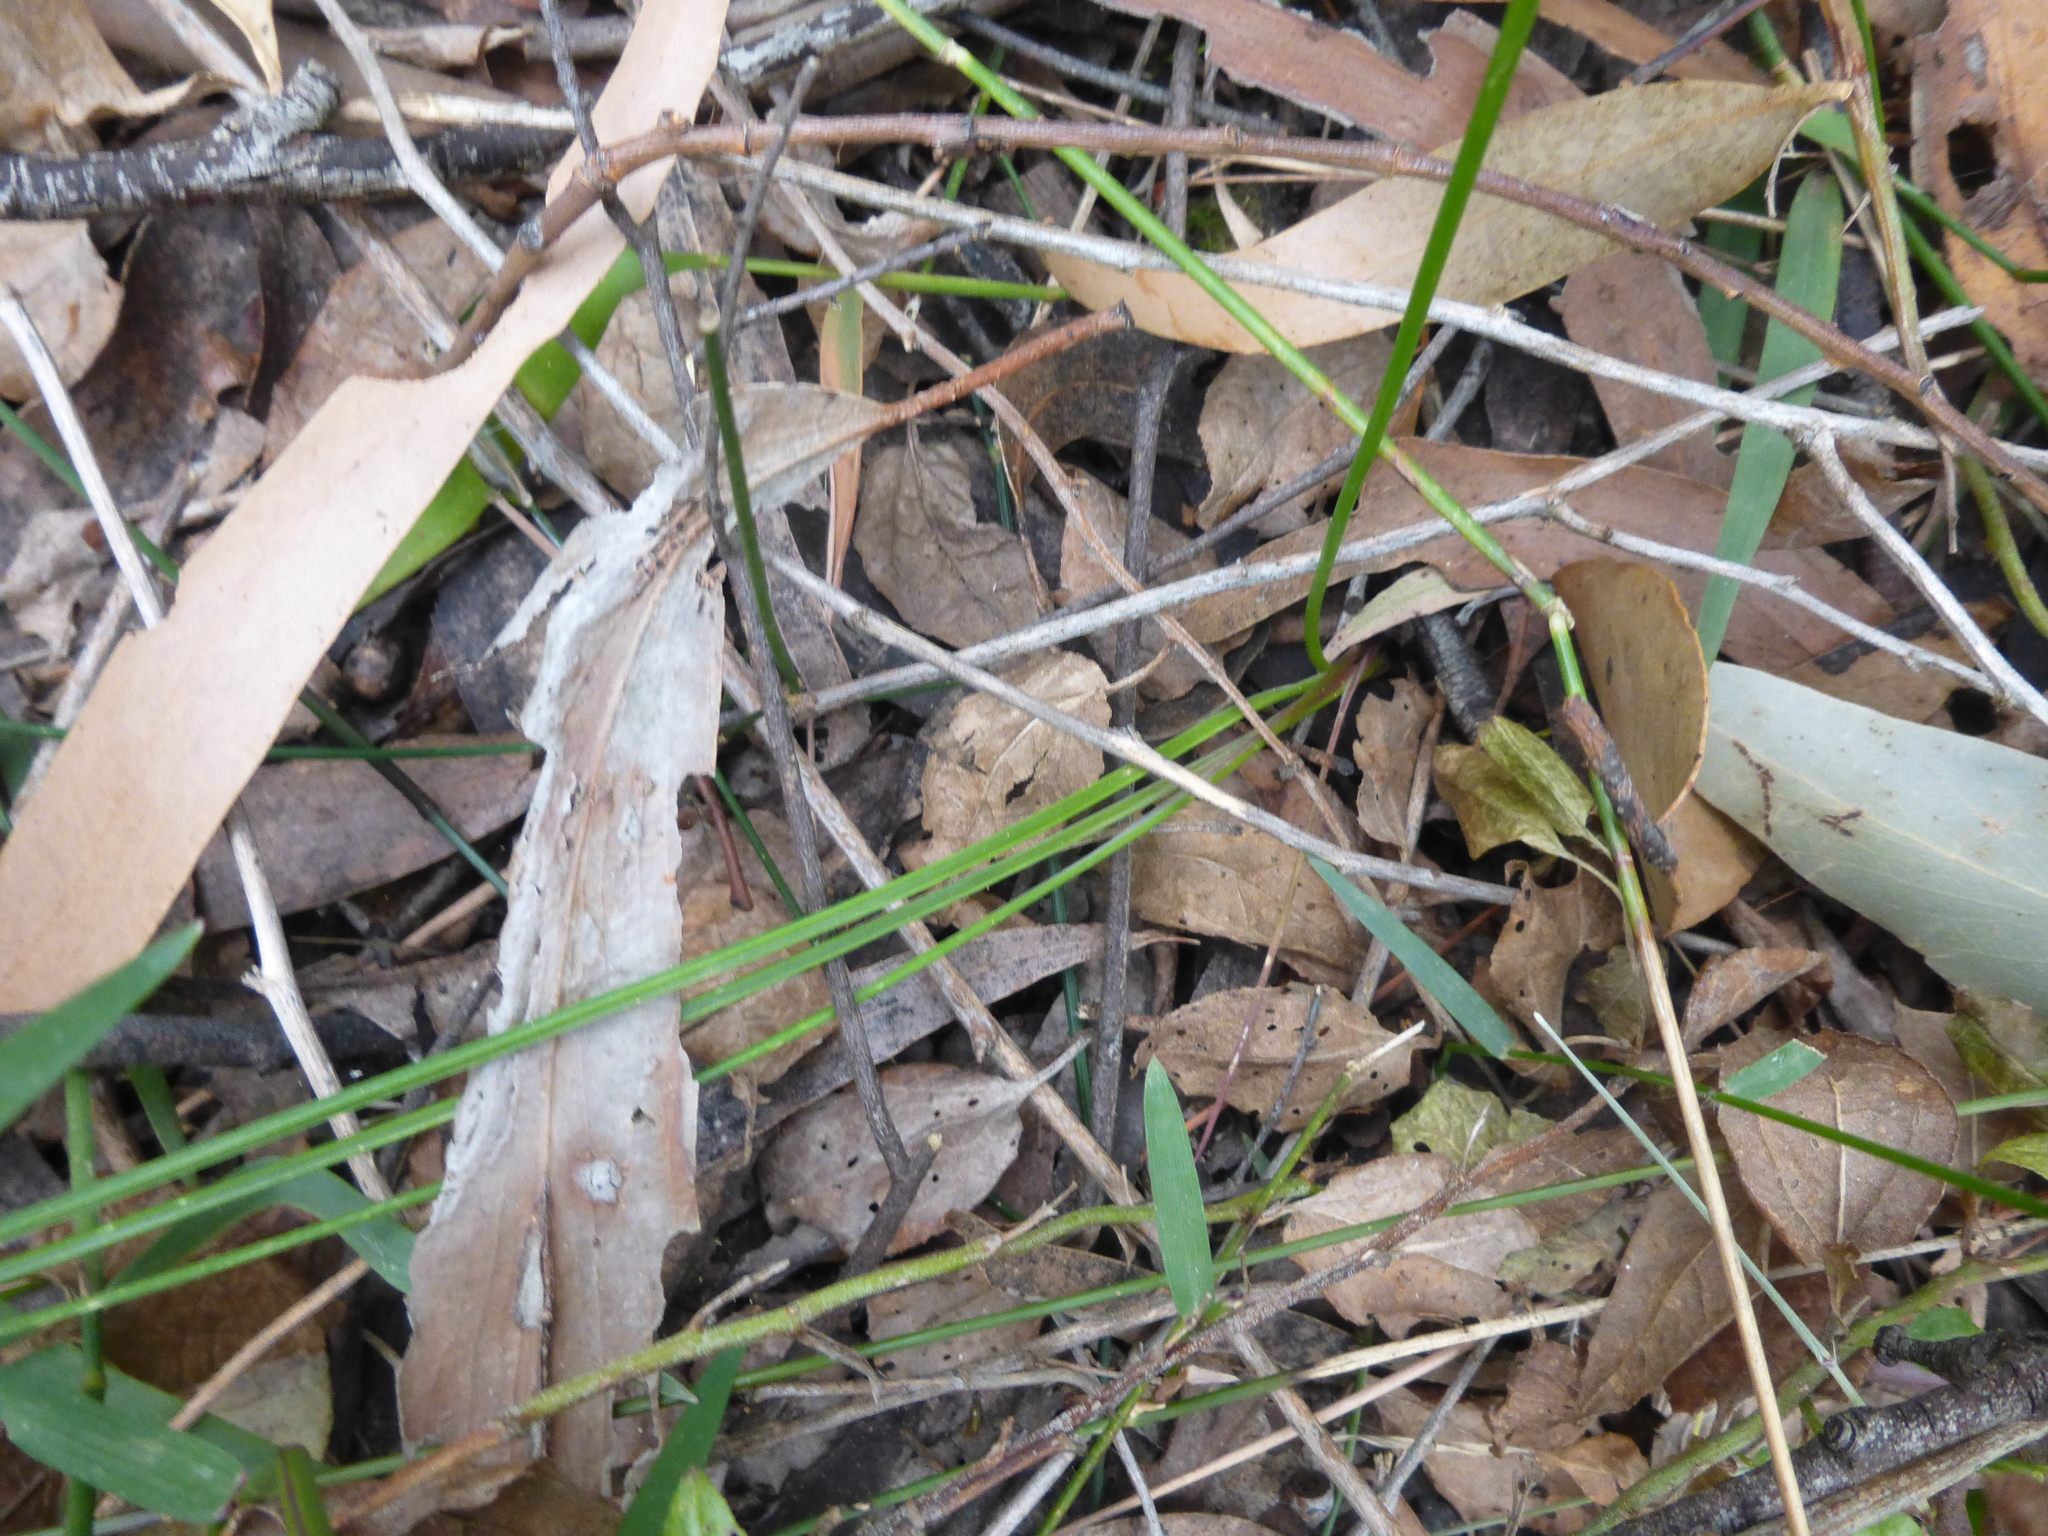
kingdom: Plantae
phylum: Tracheophyta
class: Liliopsida
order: Asparagales
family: Asparagaceae
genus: Thysanotus
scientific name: Thysanotus tuberosus
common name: Common fringed-lily
